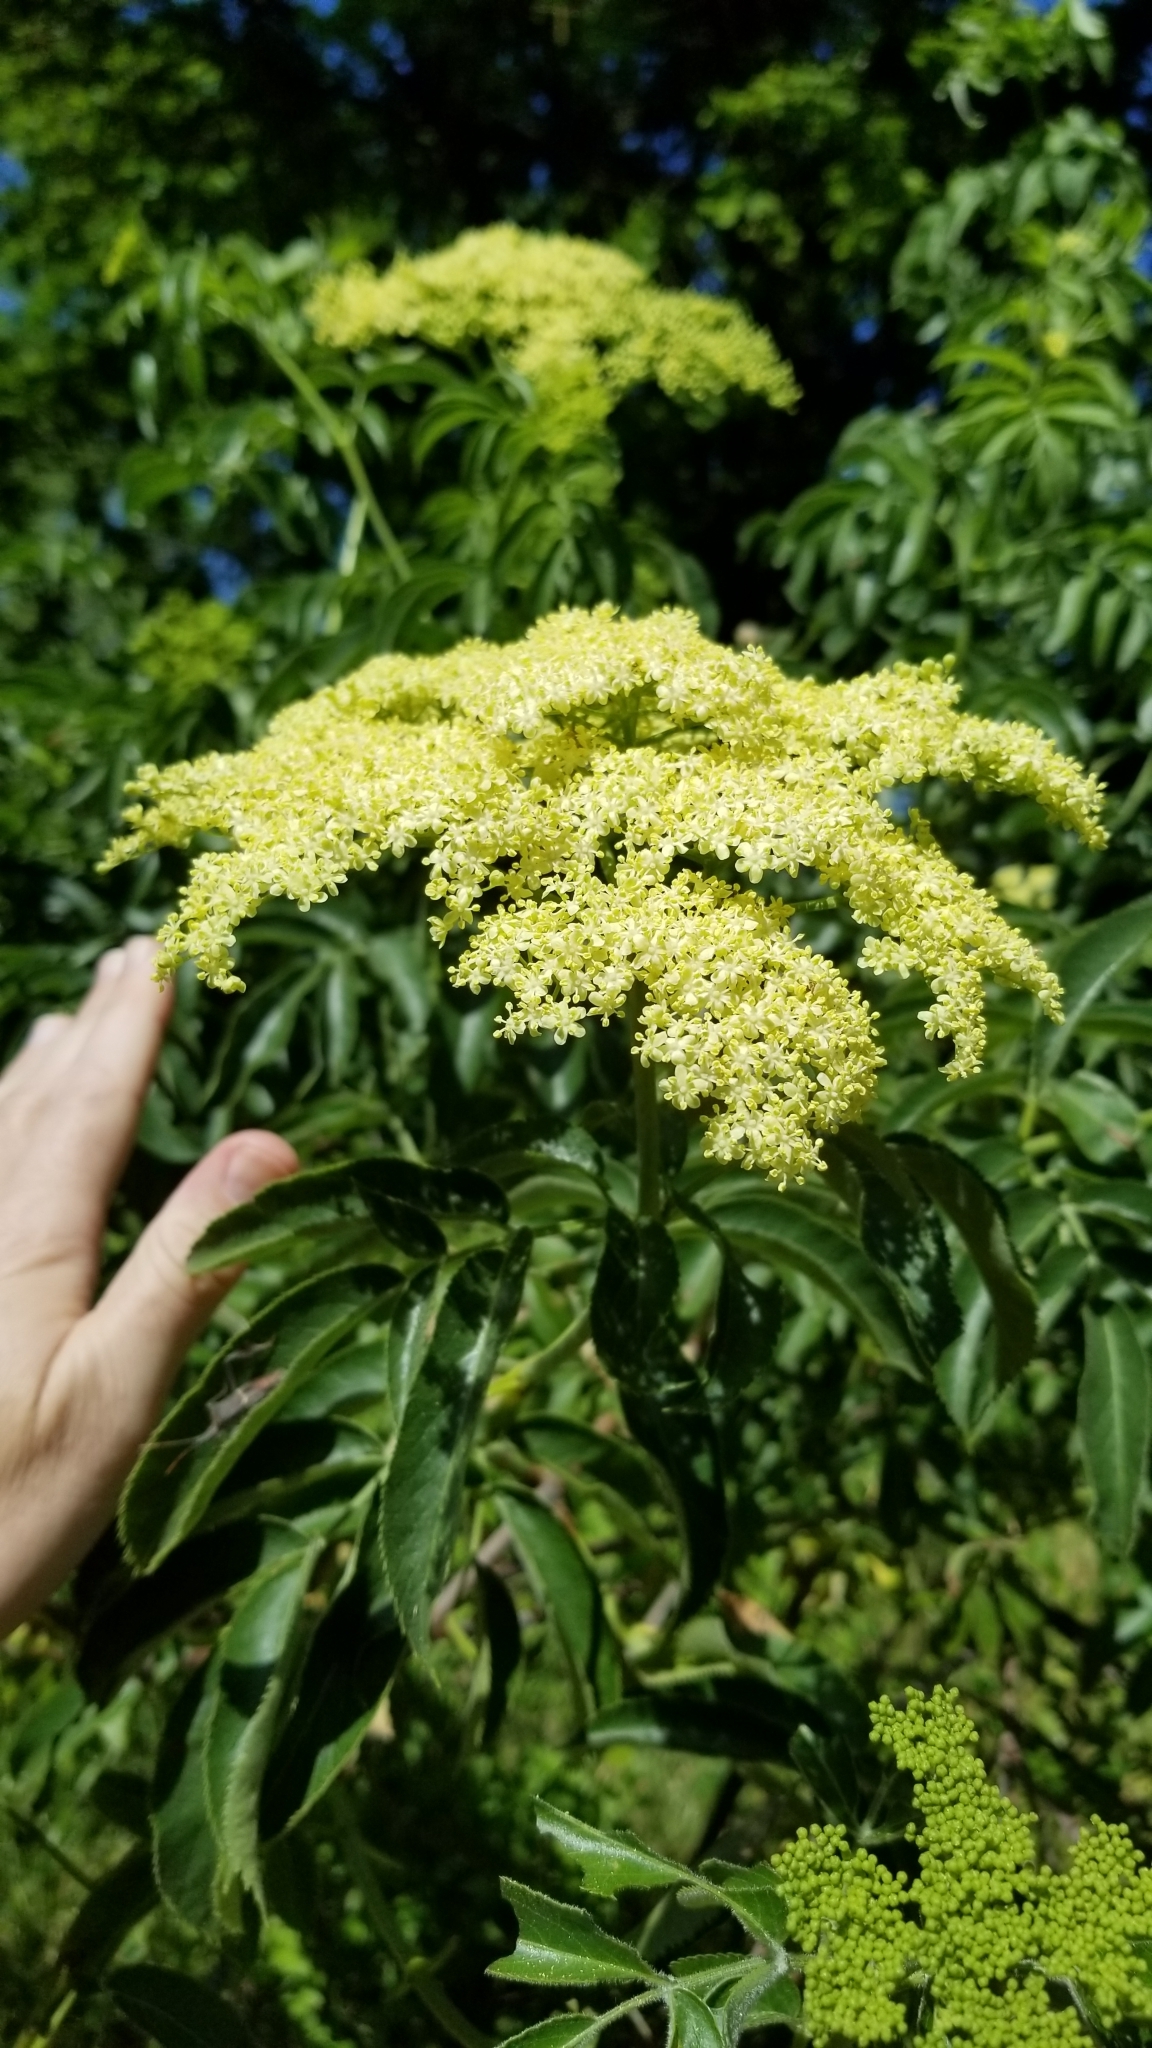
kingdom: Plantae
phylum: Tracheophyta
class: Magnoliopsida
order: Dipsacales
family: Viburnaceae
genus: Sambucus
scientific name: Sambucus cerulea
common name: Blue elder
